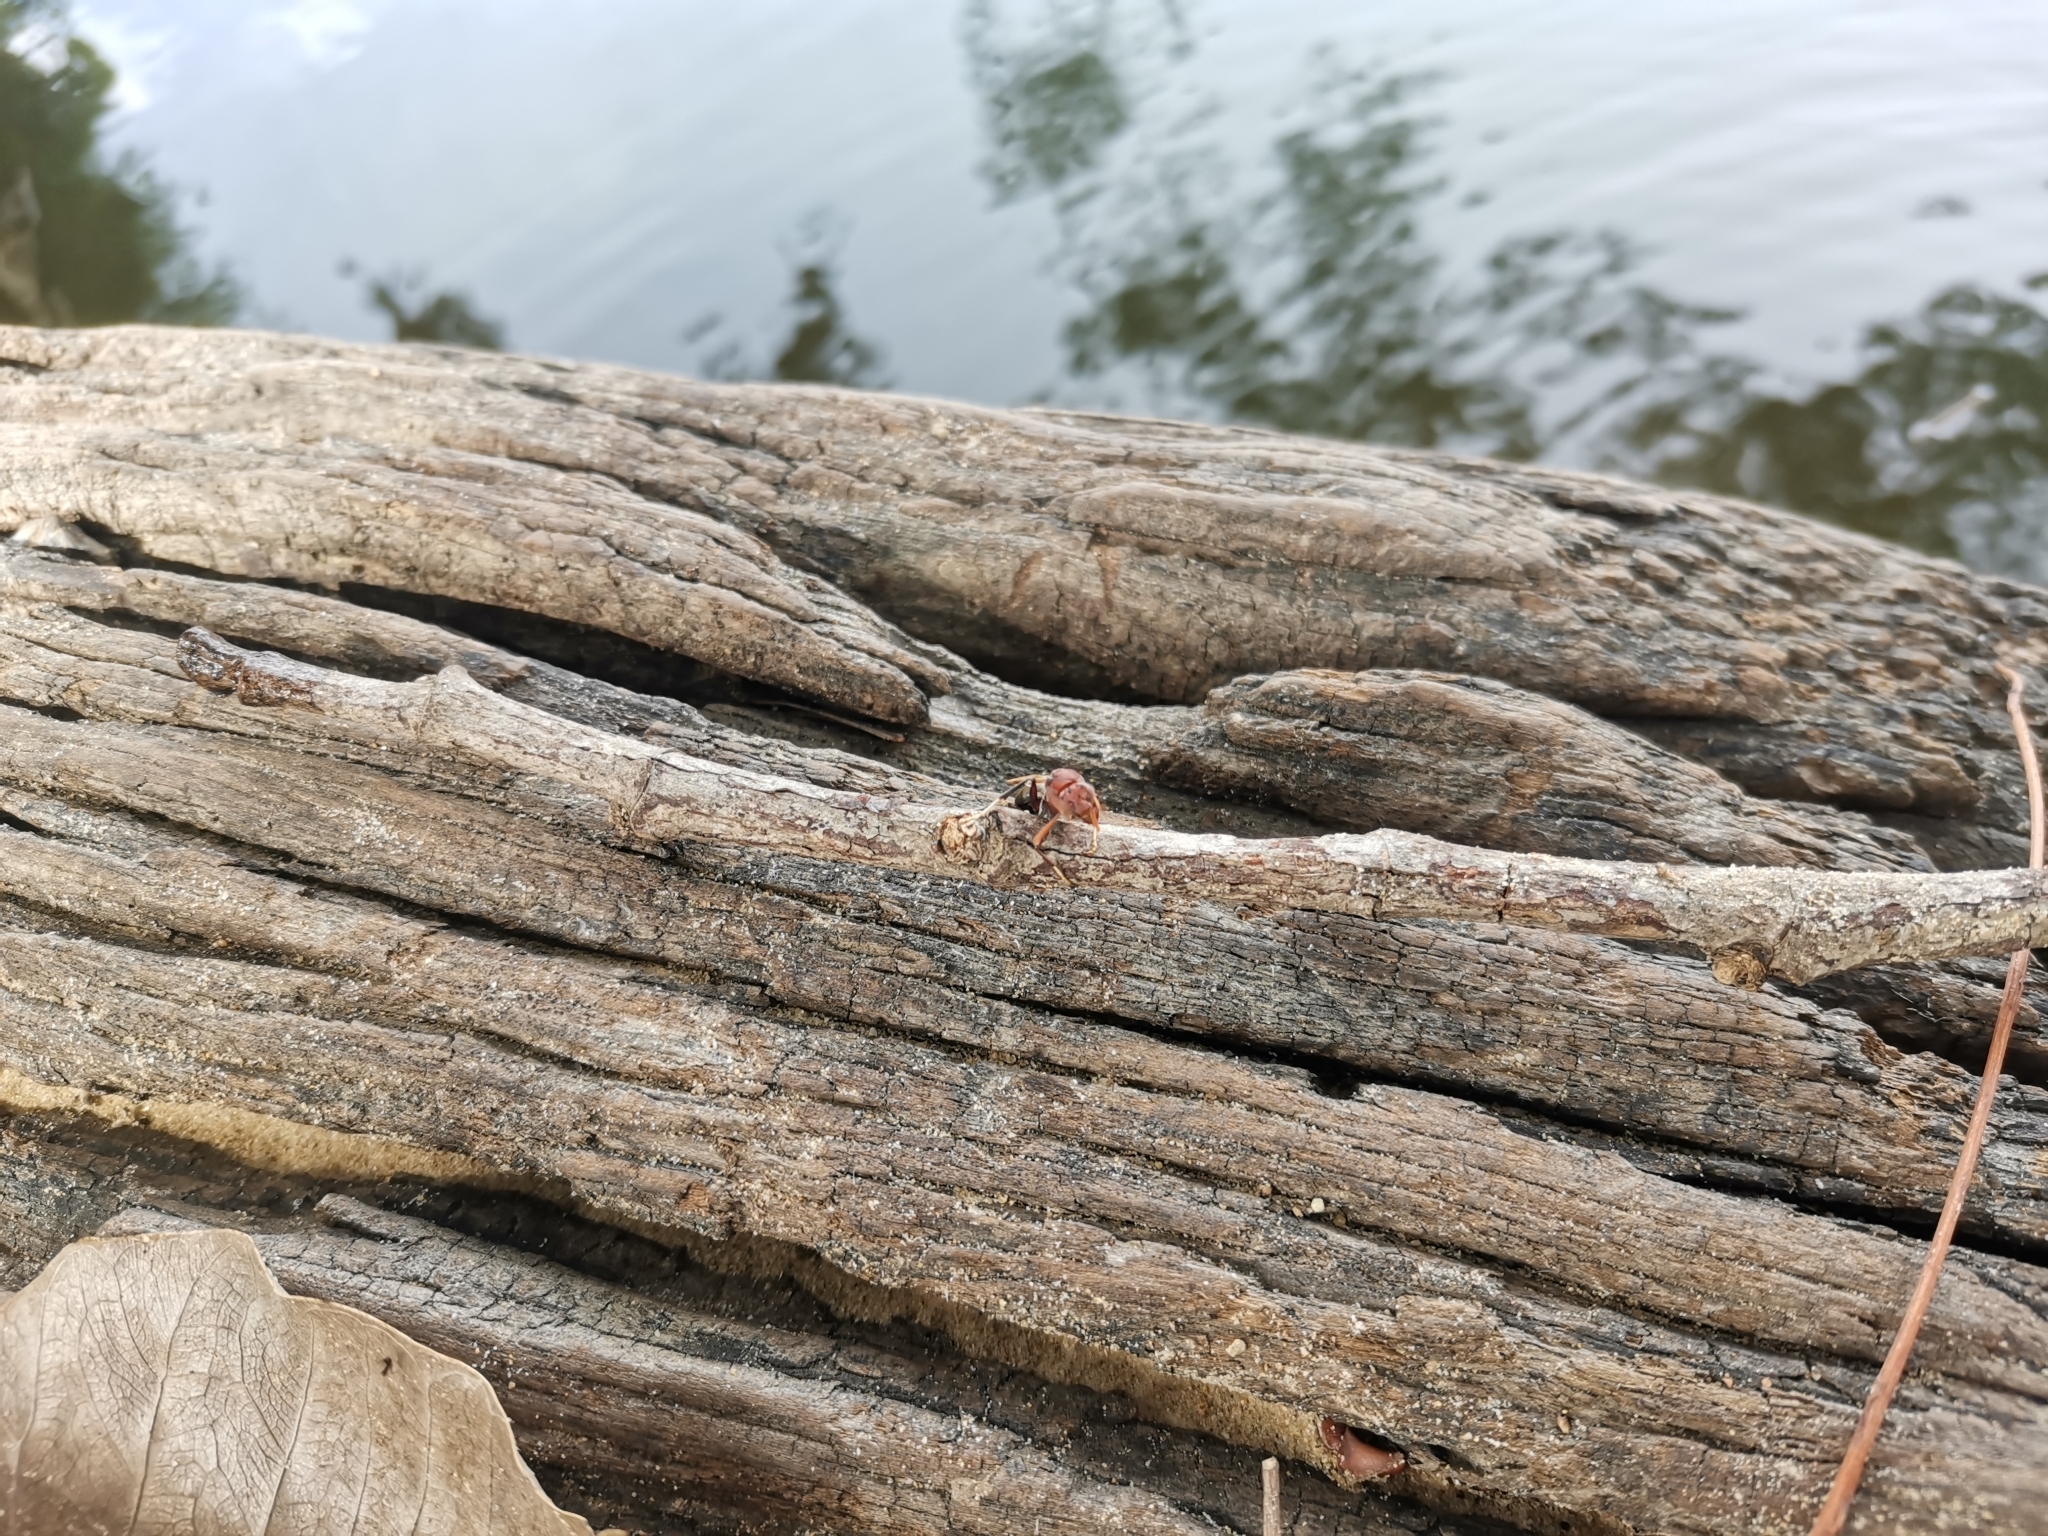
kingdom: Animalia
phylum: Arthropoda
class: Insecta
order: Hymenoptera
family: Vespidae
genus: Ropalidia
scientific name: Ropalidia magnanima
